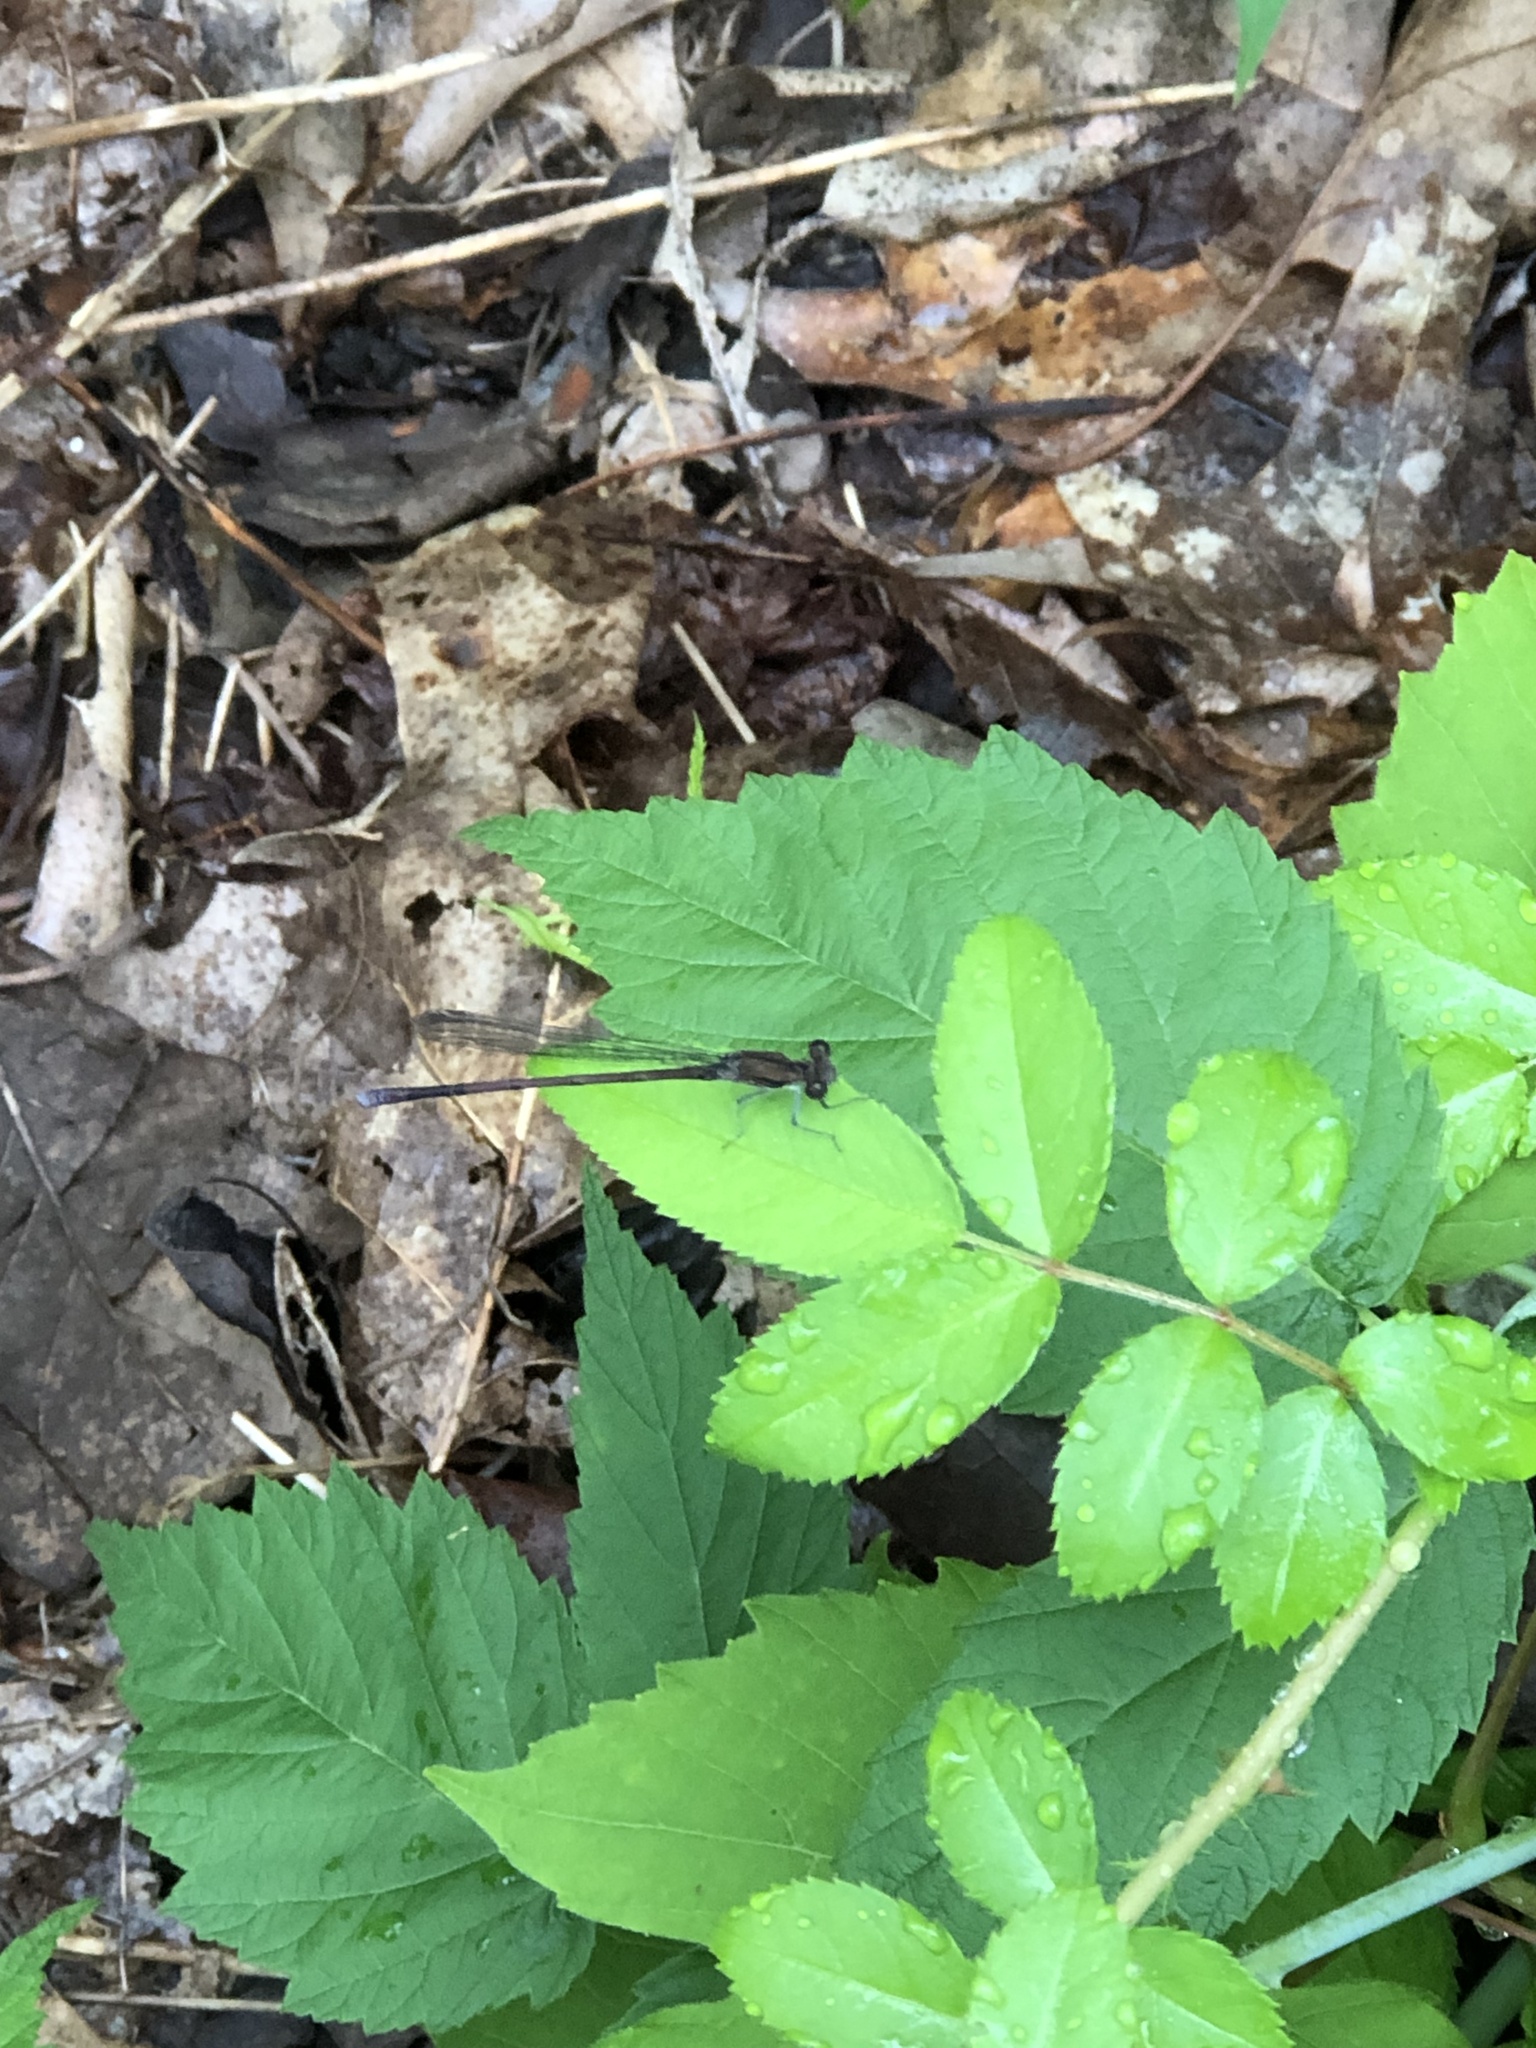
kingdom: Animalia
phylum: Arthropoda
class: Insecta
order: Odonata
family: Coenagrionidae
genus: Argia
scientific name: Argia tibialis
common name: Blue-tipped dancer
